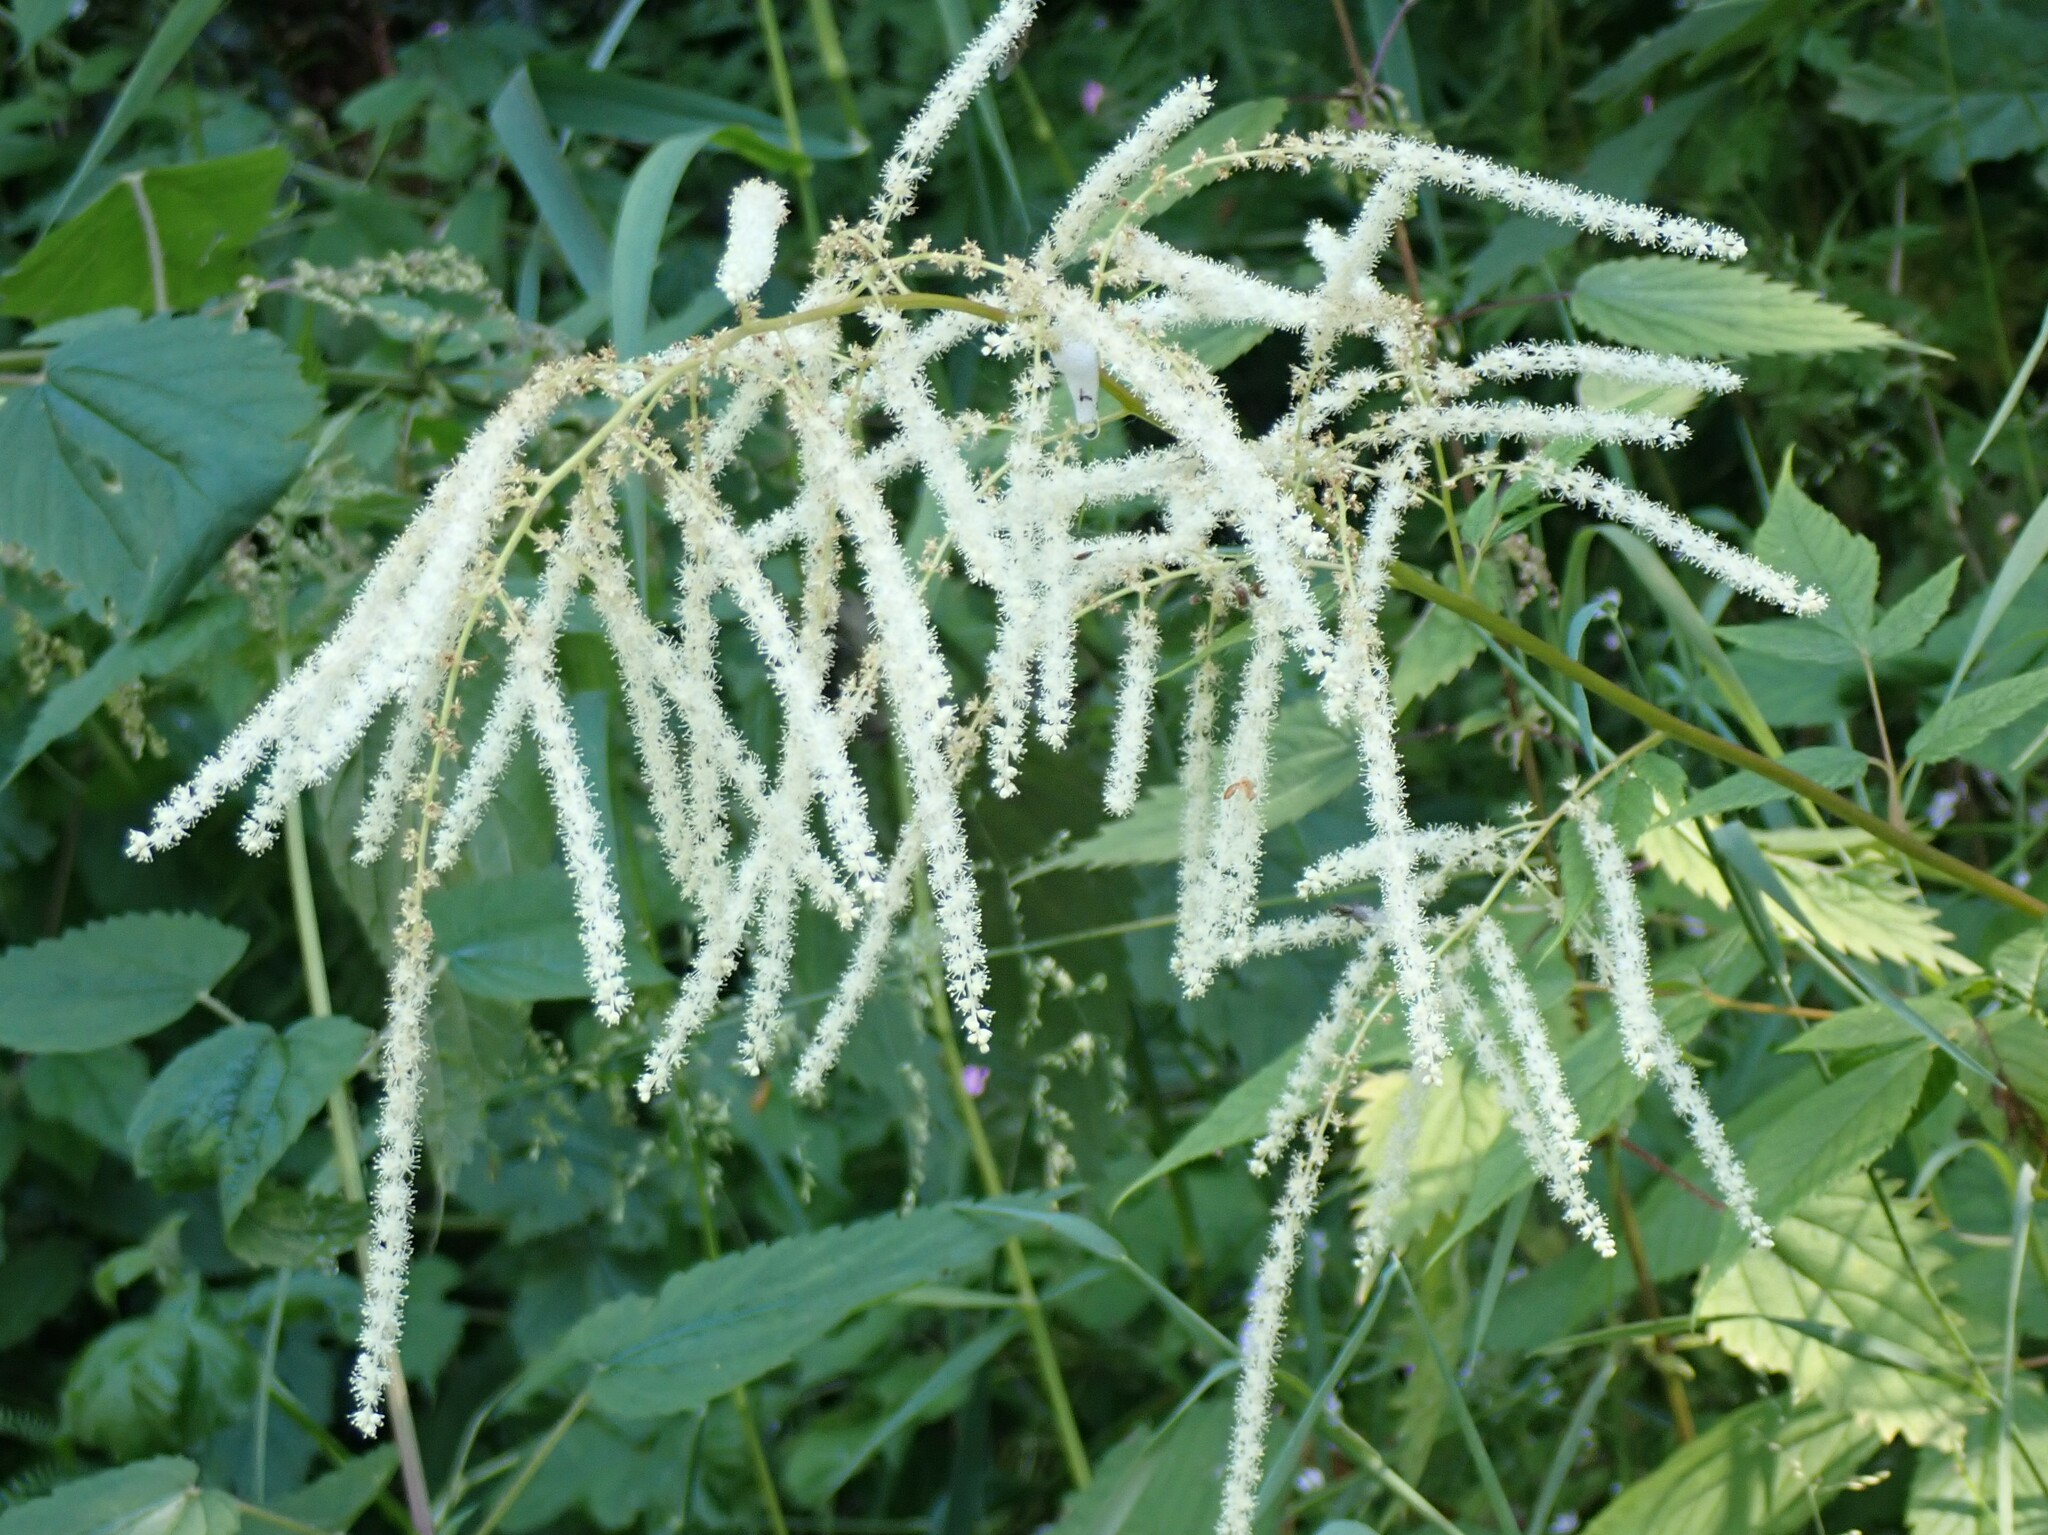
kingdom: Plantae
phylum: Tracheophyta
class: Magnoliopsida
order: Rosales
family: Rosaceae
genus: Aruncus
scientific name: Aruncus dioicus
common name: Buck's-beard
